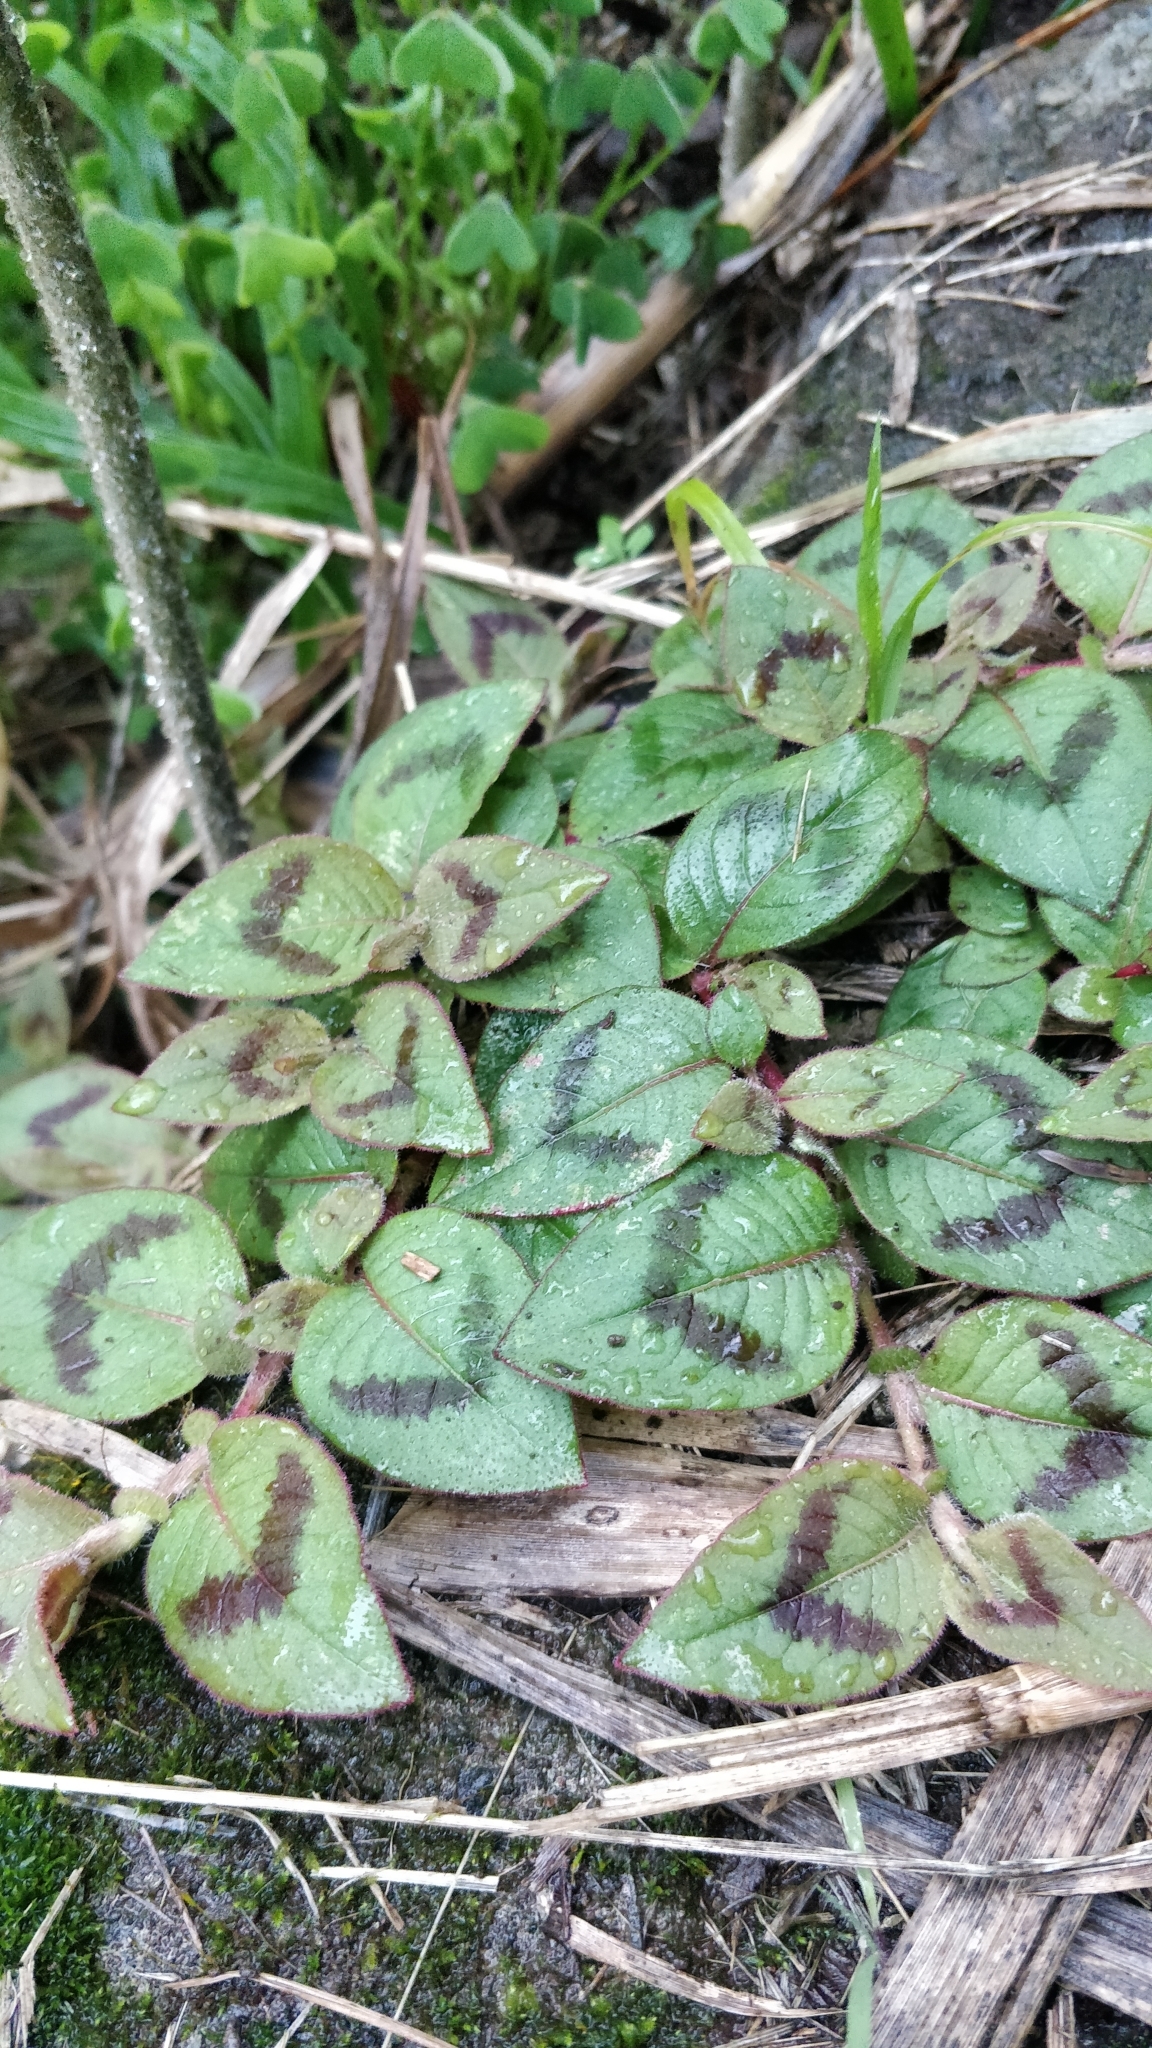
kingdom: Plantae
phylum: Tracheophyta
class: Magnoliopsida
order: Caryophyllales
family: Polygonaceae
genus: Persicaria
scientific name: Persicaria capitata
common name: Pinkhead smartweed
